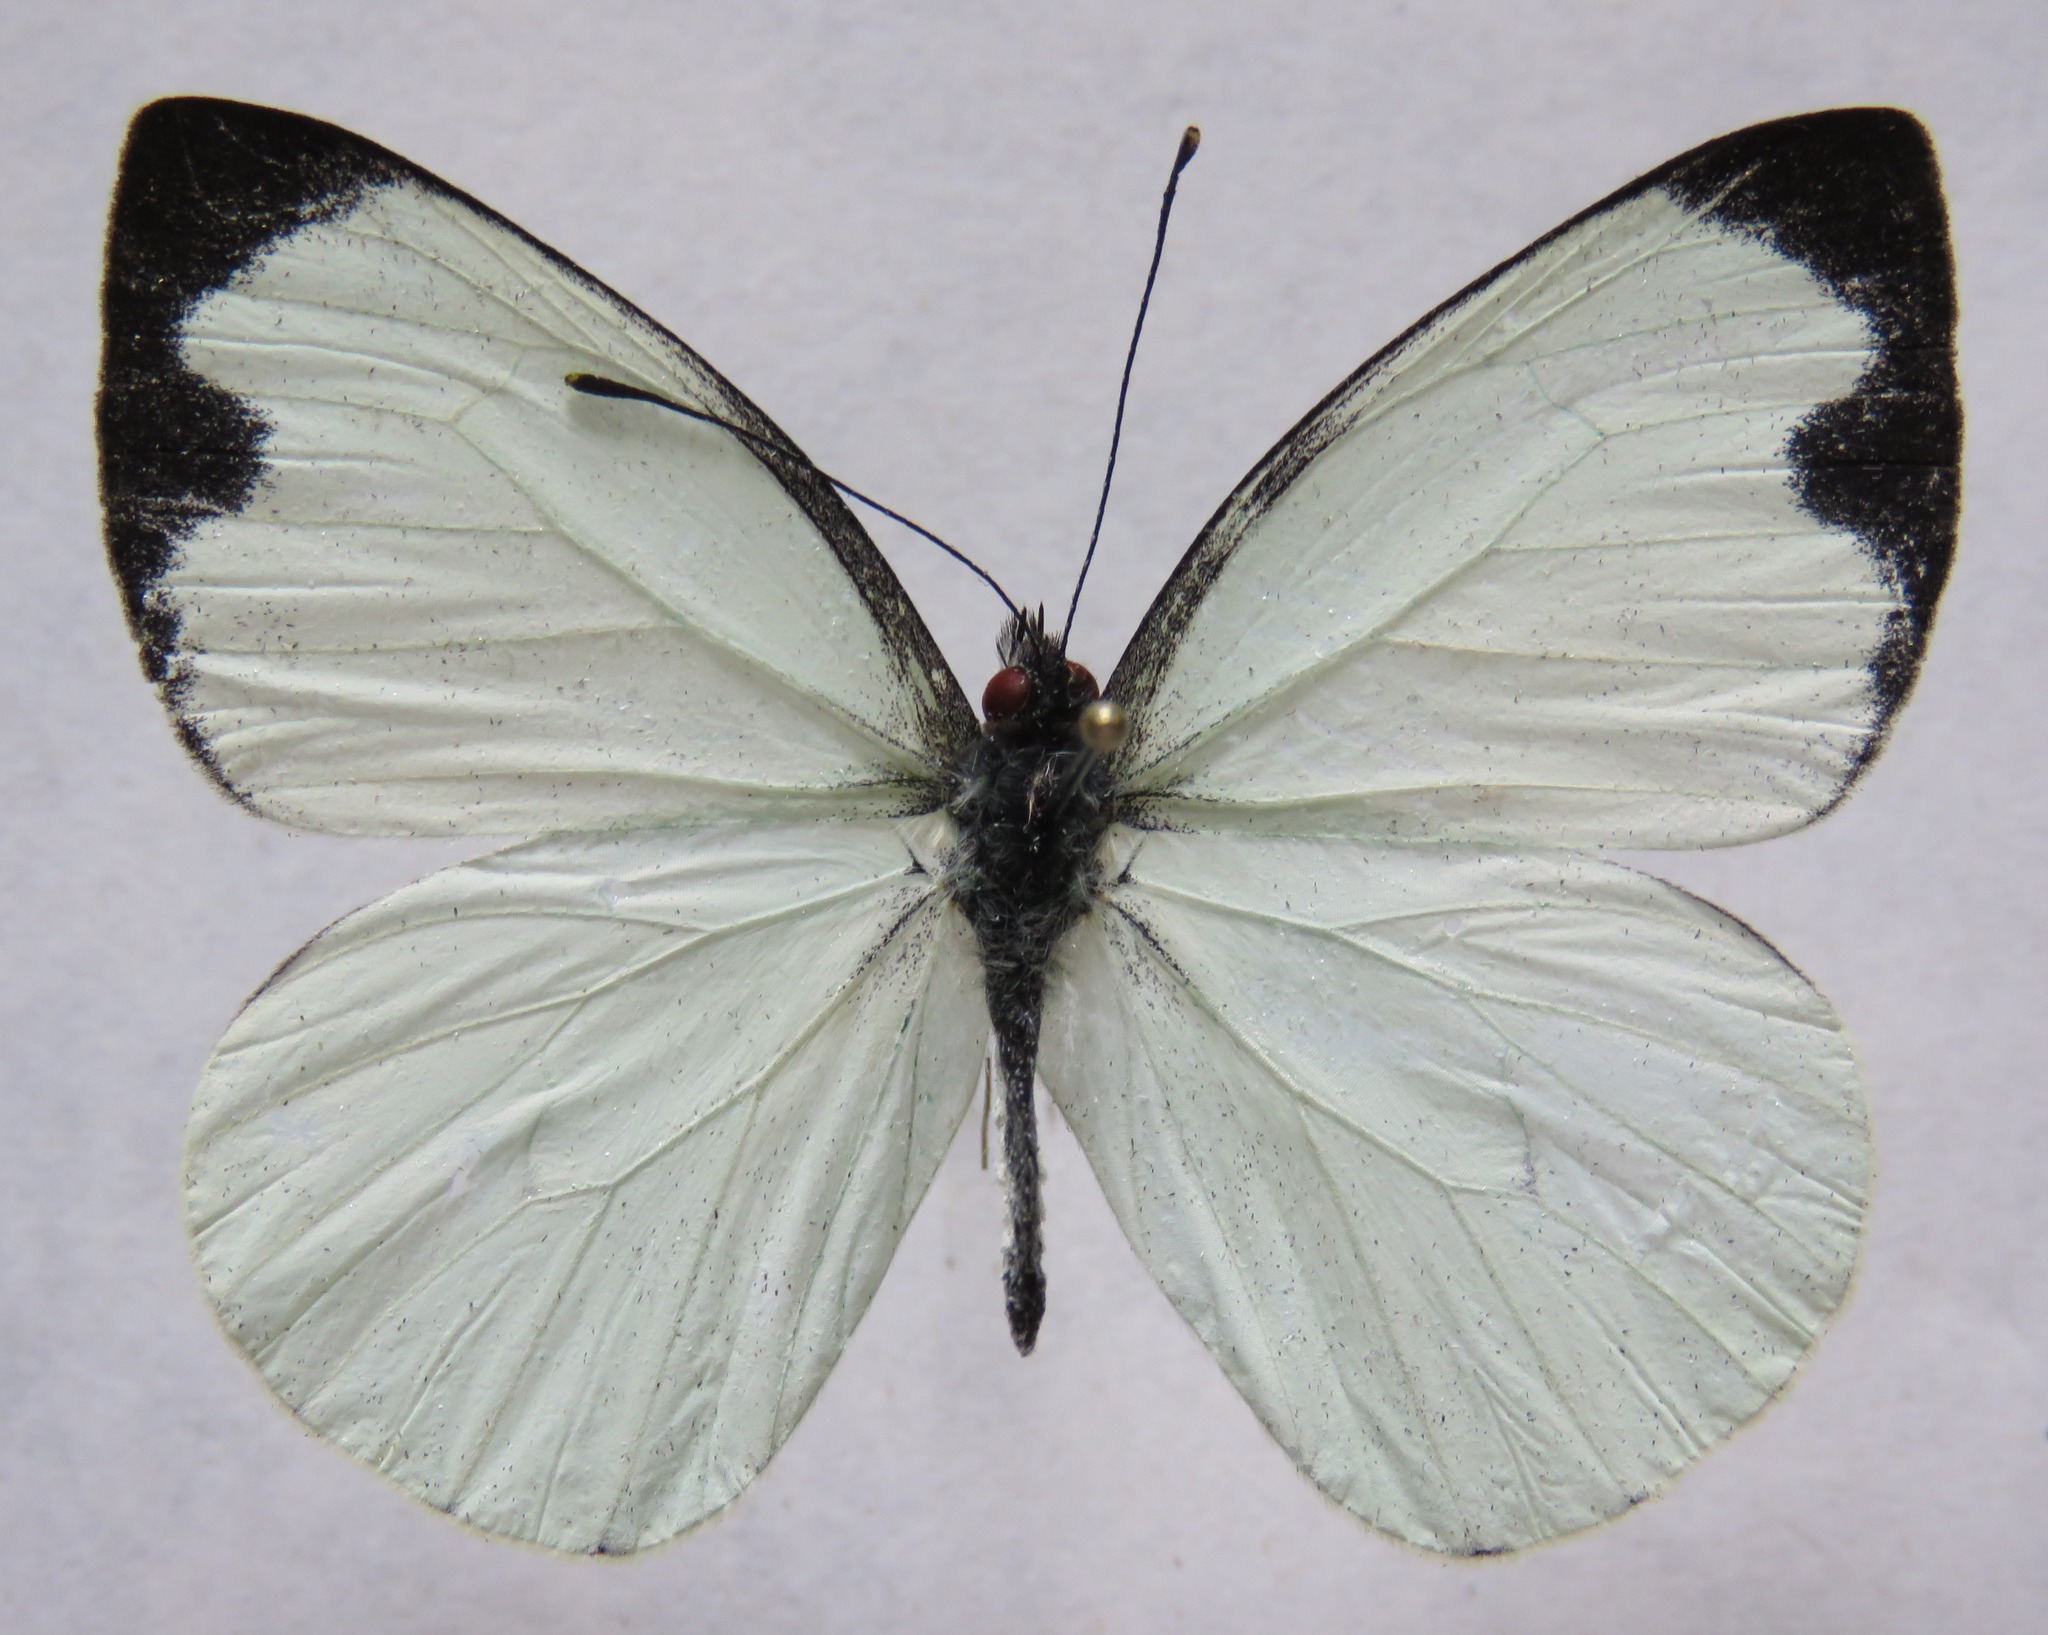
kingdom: Animalia
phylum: Arthropoda
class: Insecta
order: Lepidoptera
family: Pieridae
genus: Leptophobia
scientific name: Leptophobia aripa
